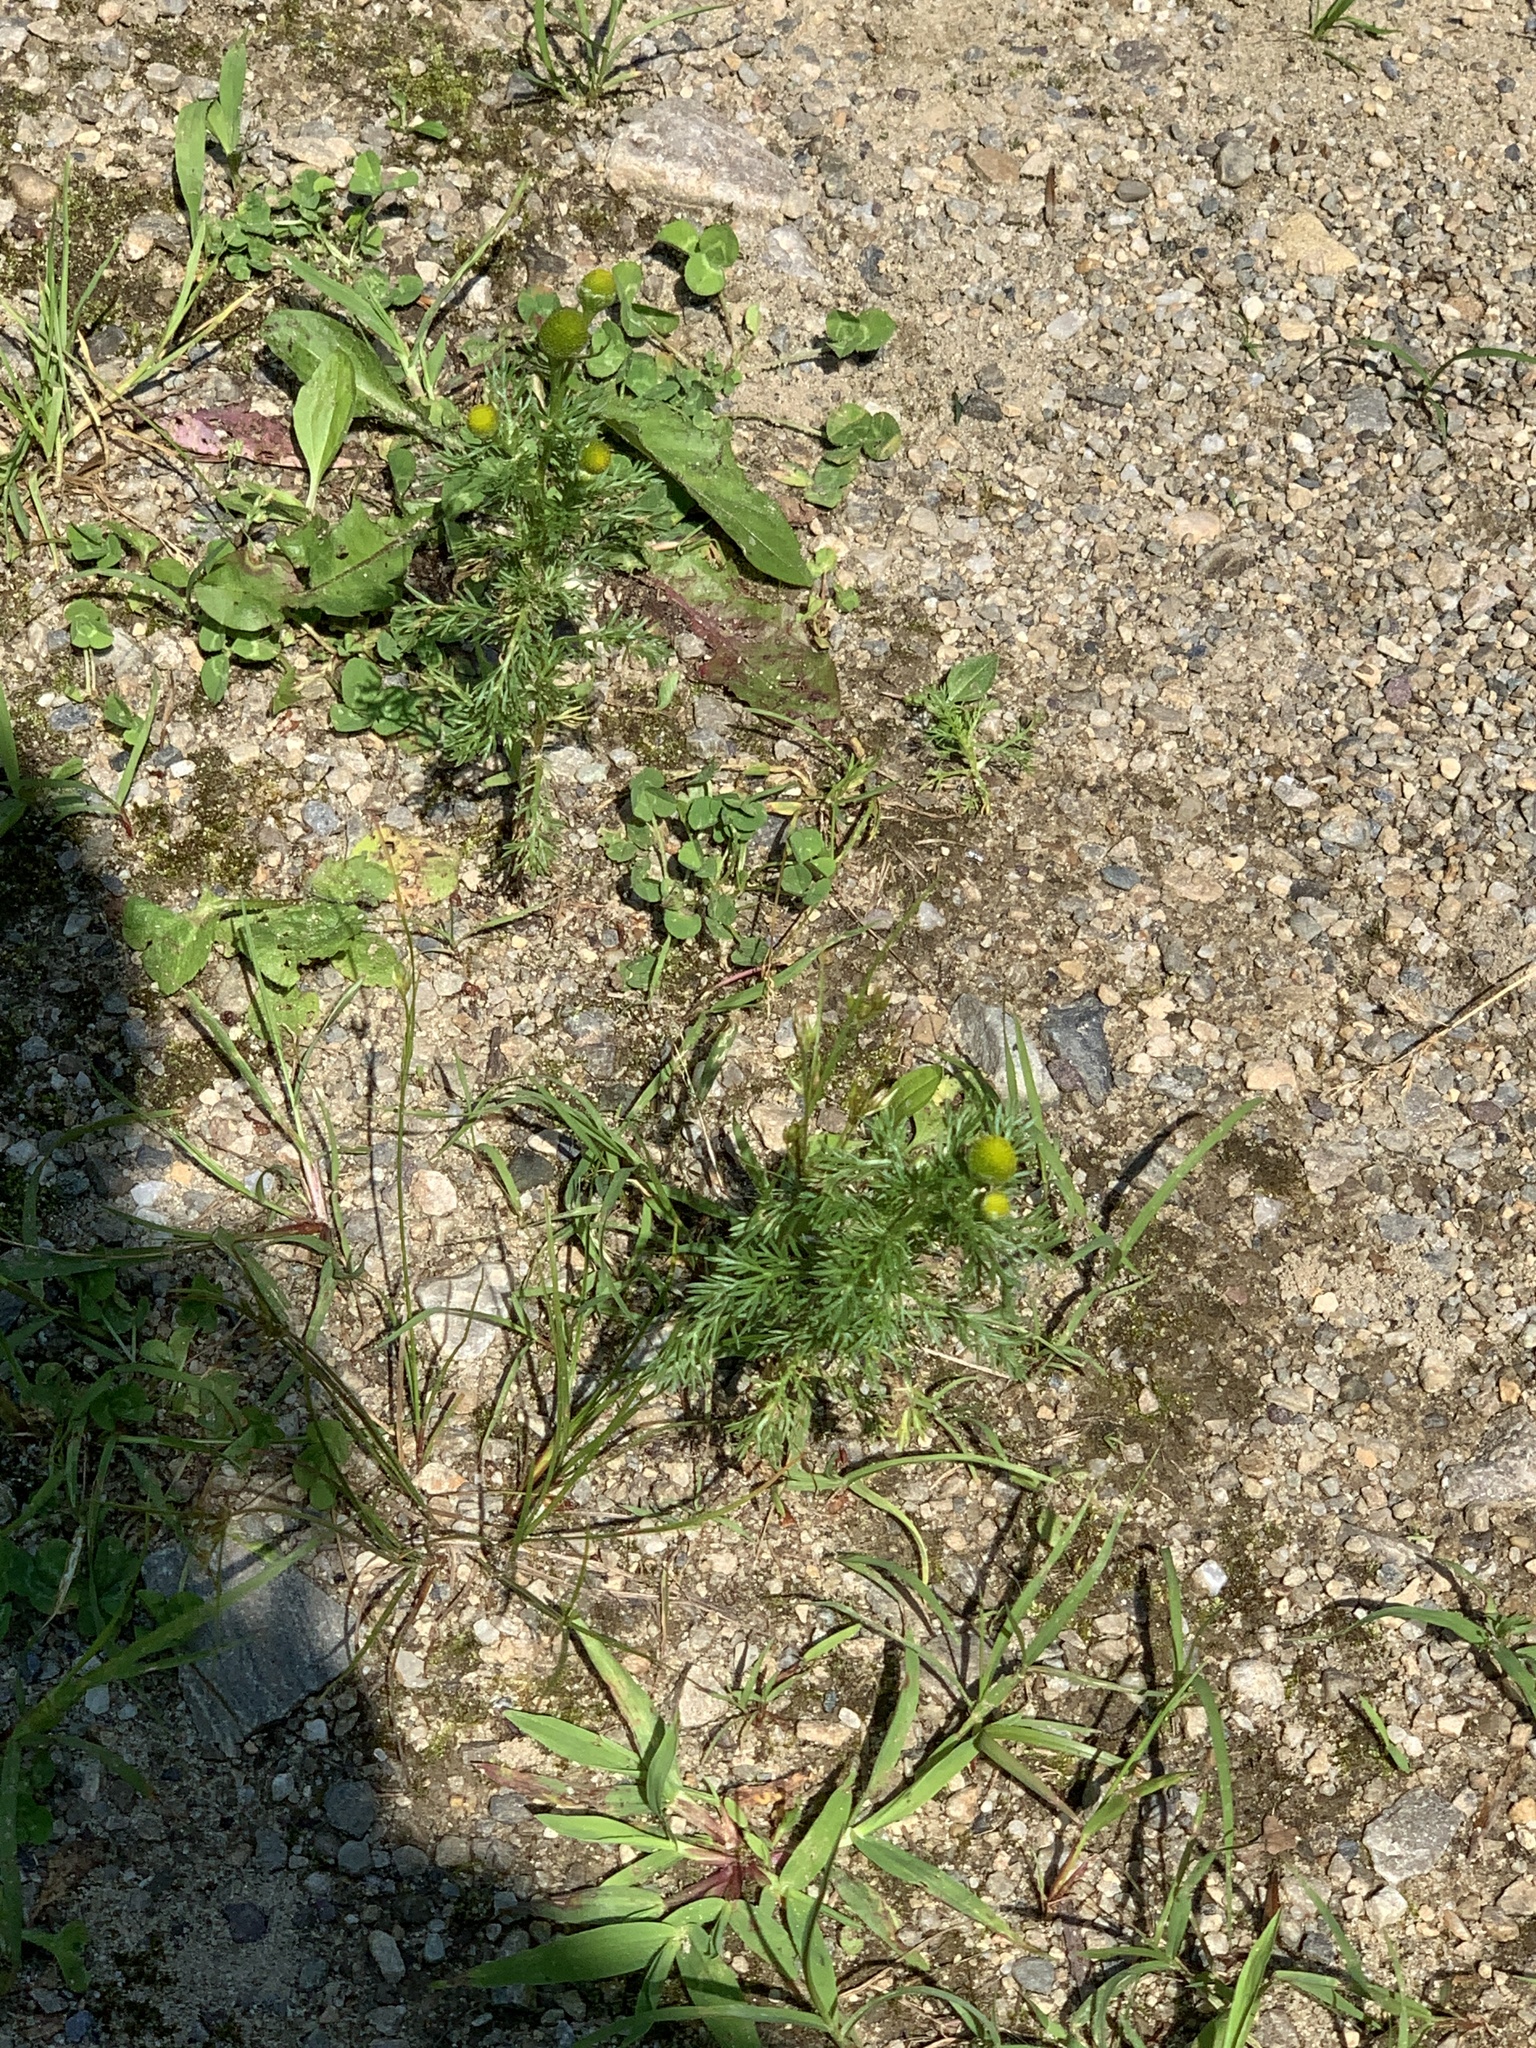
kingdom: Plantae
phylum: Tracheophyta
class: Magnoliopsida
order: Asterales
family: Asteraceae
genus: Matricaria
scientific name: Matricaria discoidea
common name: Disc mayweed
